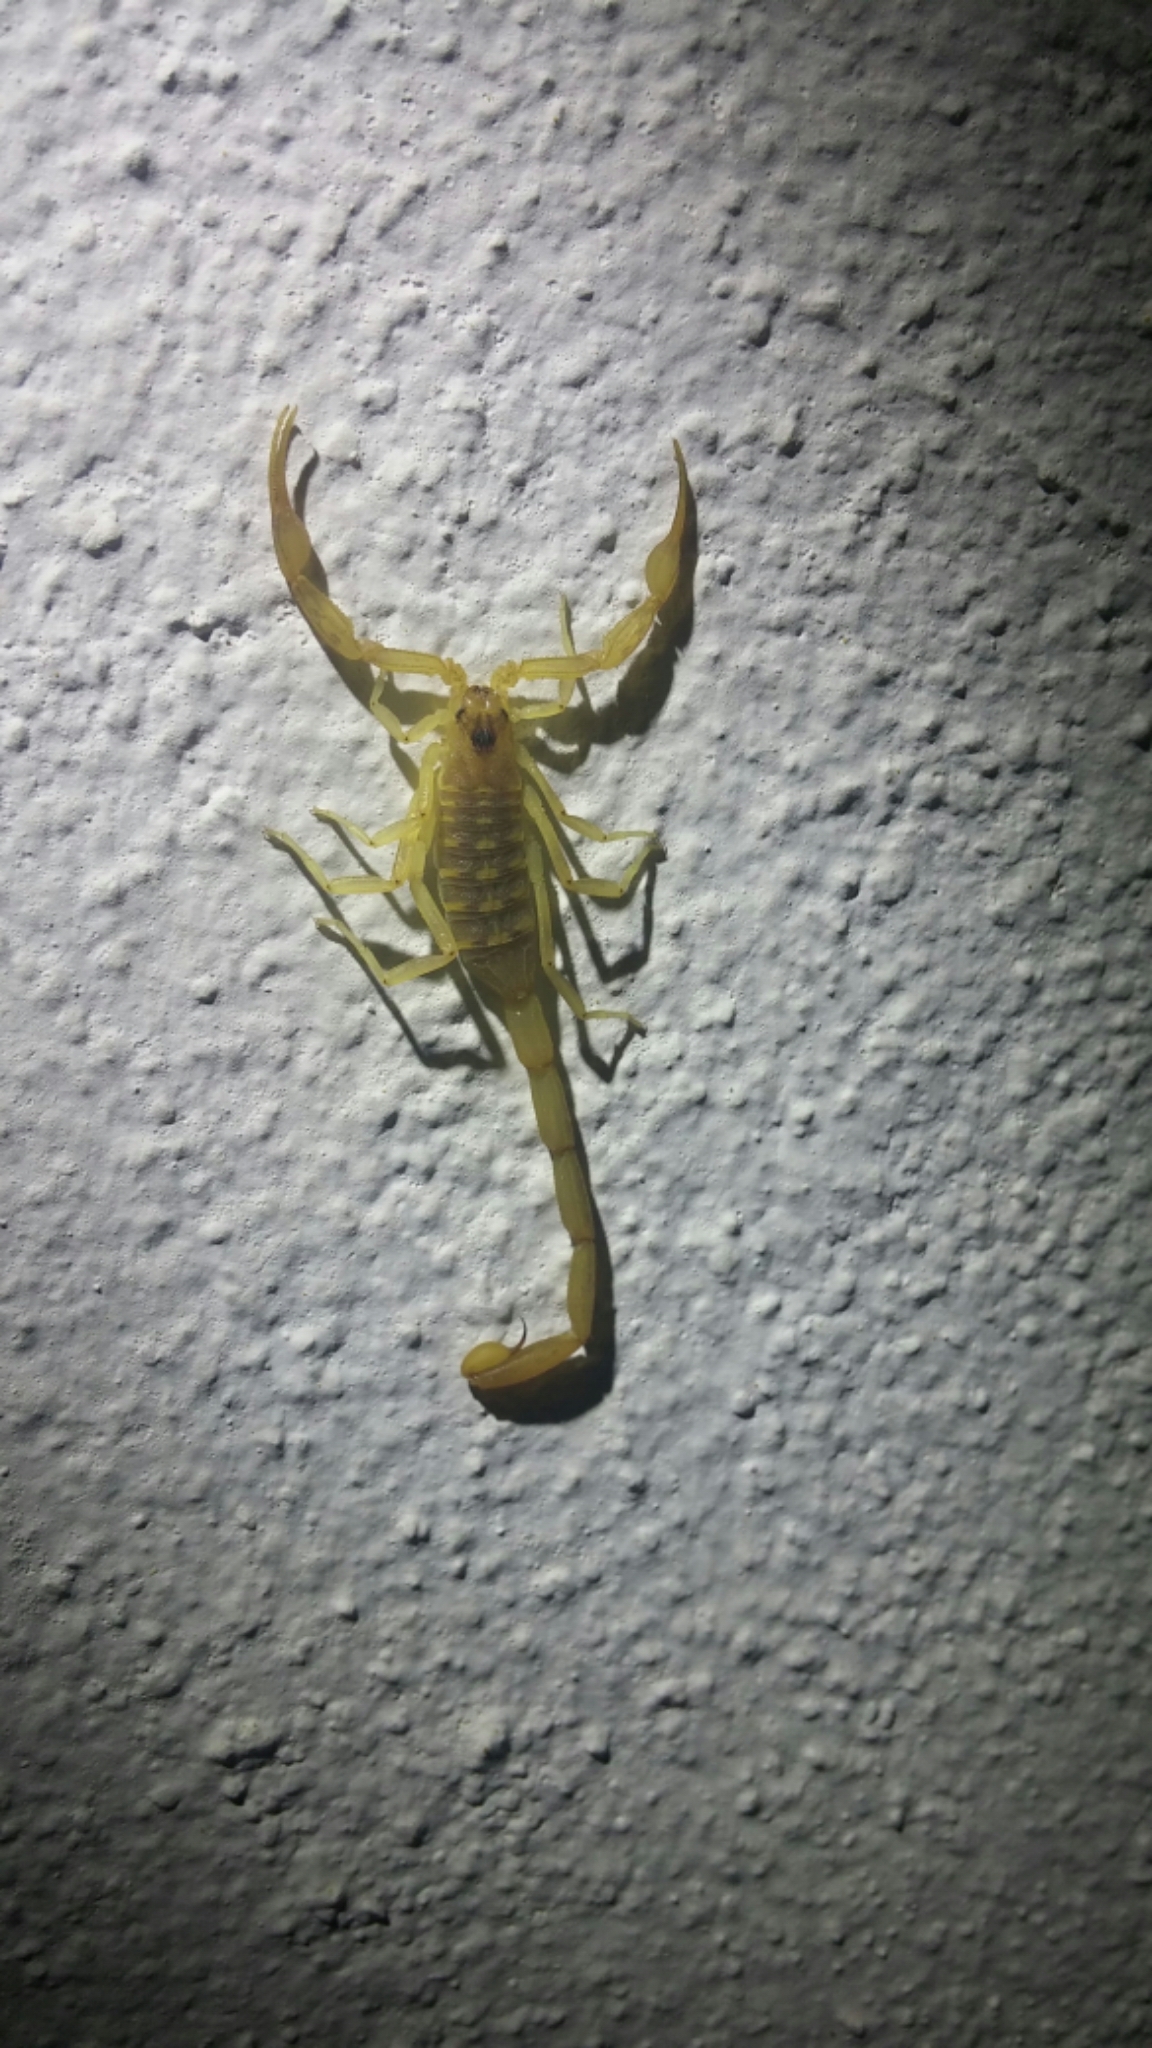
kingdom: Animalia
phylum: Arthropoda
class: Arachnida
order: Scorpiones
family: Buthidae
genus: Centruroides
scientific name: Centruroides exilicauda
